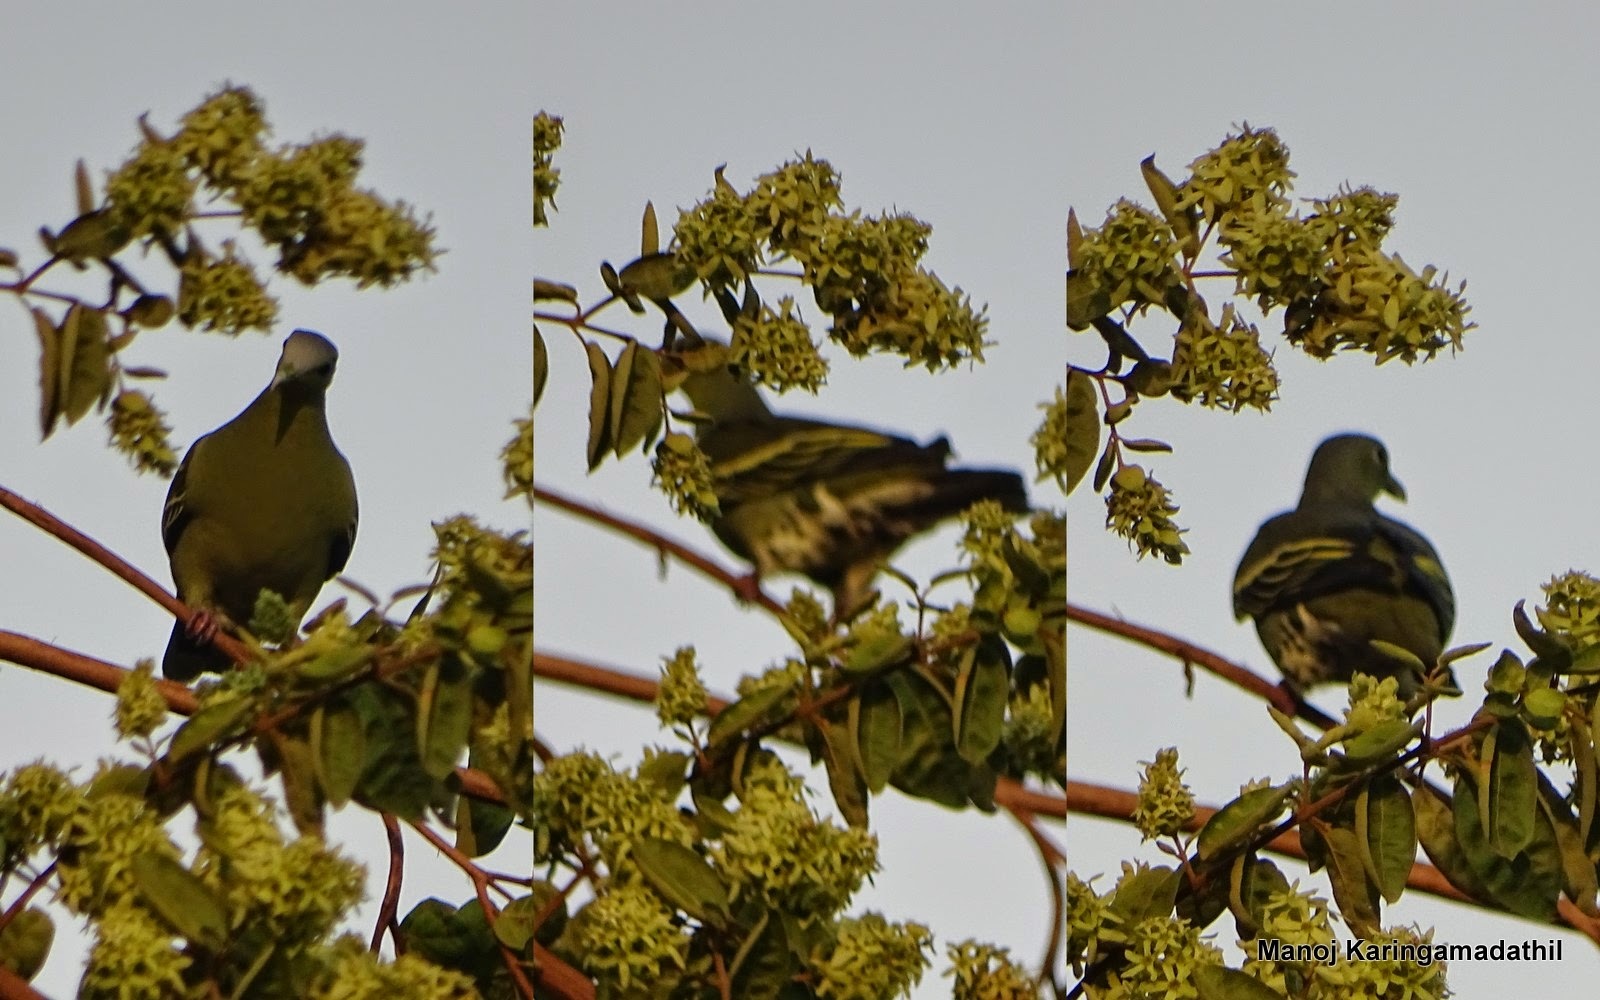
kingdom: Animalia
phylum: Chordata
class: Aves
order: Columbiformes
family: Columbidae
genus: Treron
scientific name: Treron affinis
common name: Grey-fronted green pigeon
